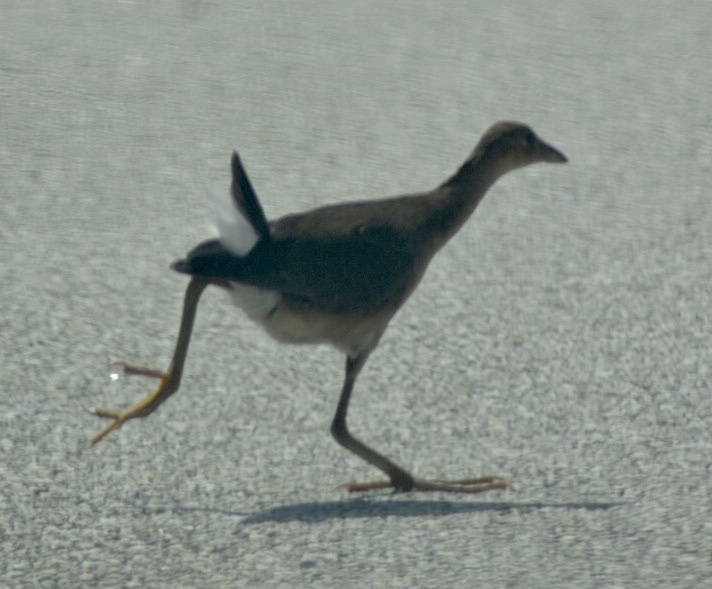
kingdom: Animalia
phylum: Chordata
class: Aves
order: Gruiformes
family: Rallidae
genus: Porphyrio
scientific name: Porphyrio martinica
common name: Purple gallinule
